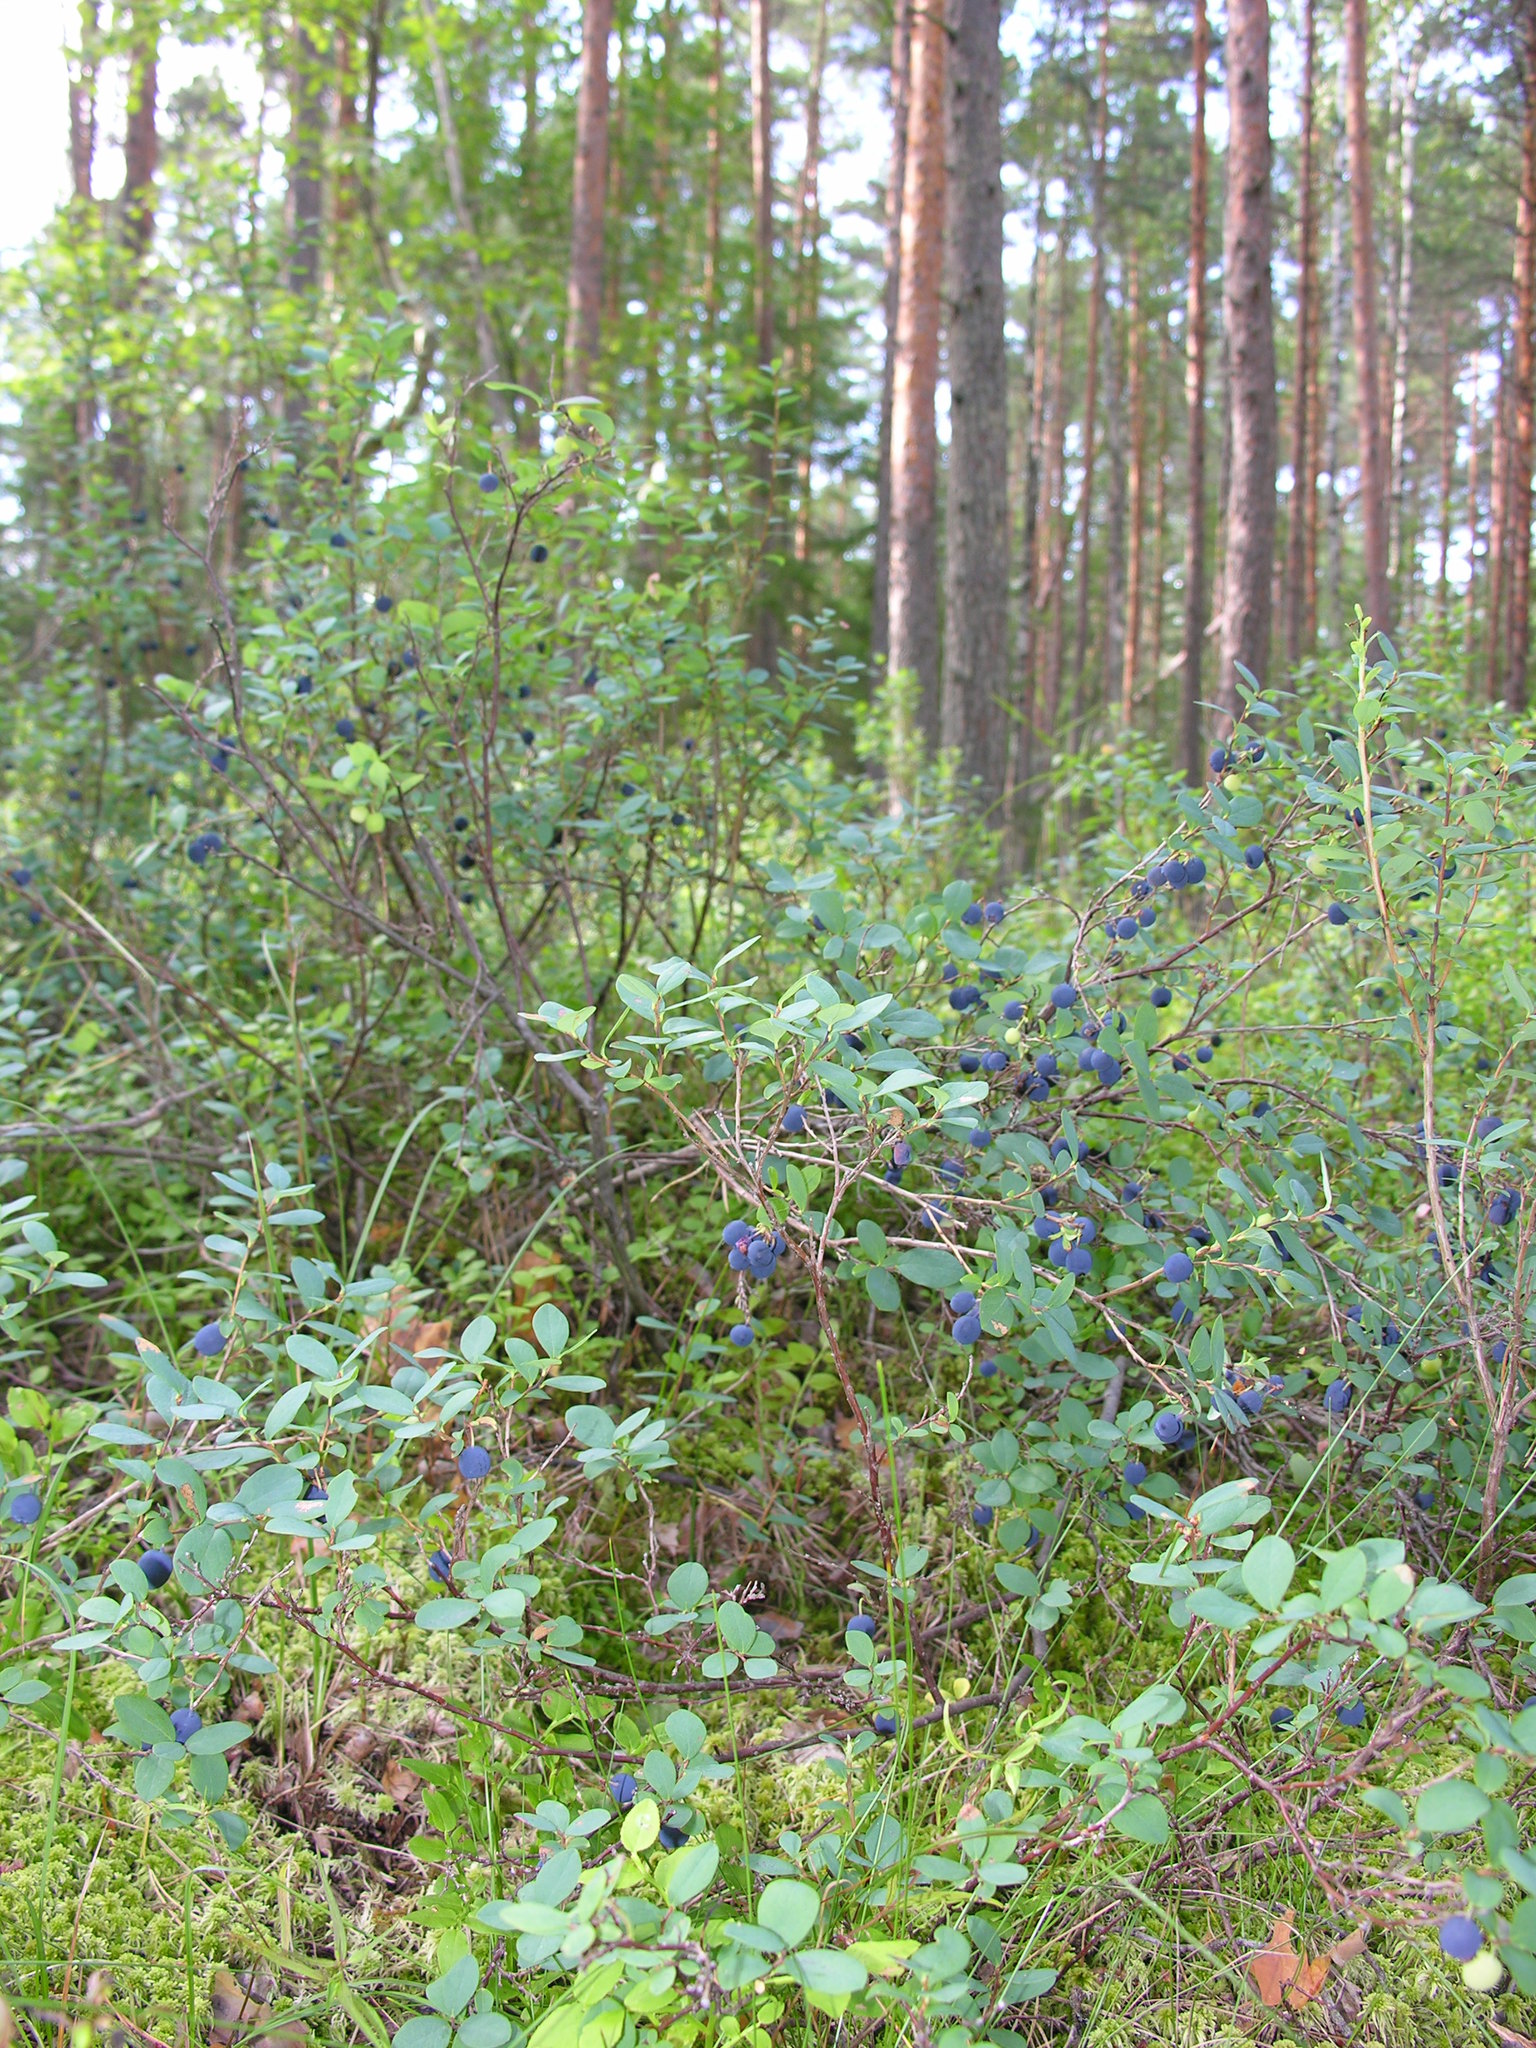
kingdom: Plantae
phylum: Tracheophyta
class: Magnoliopsida
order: Ericales
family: Ericaceae
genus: Vaccinium
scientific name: Vaccinium uliginosum
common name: Bog bilberry
